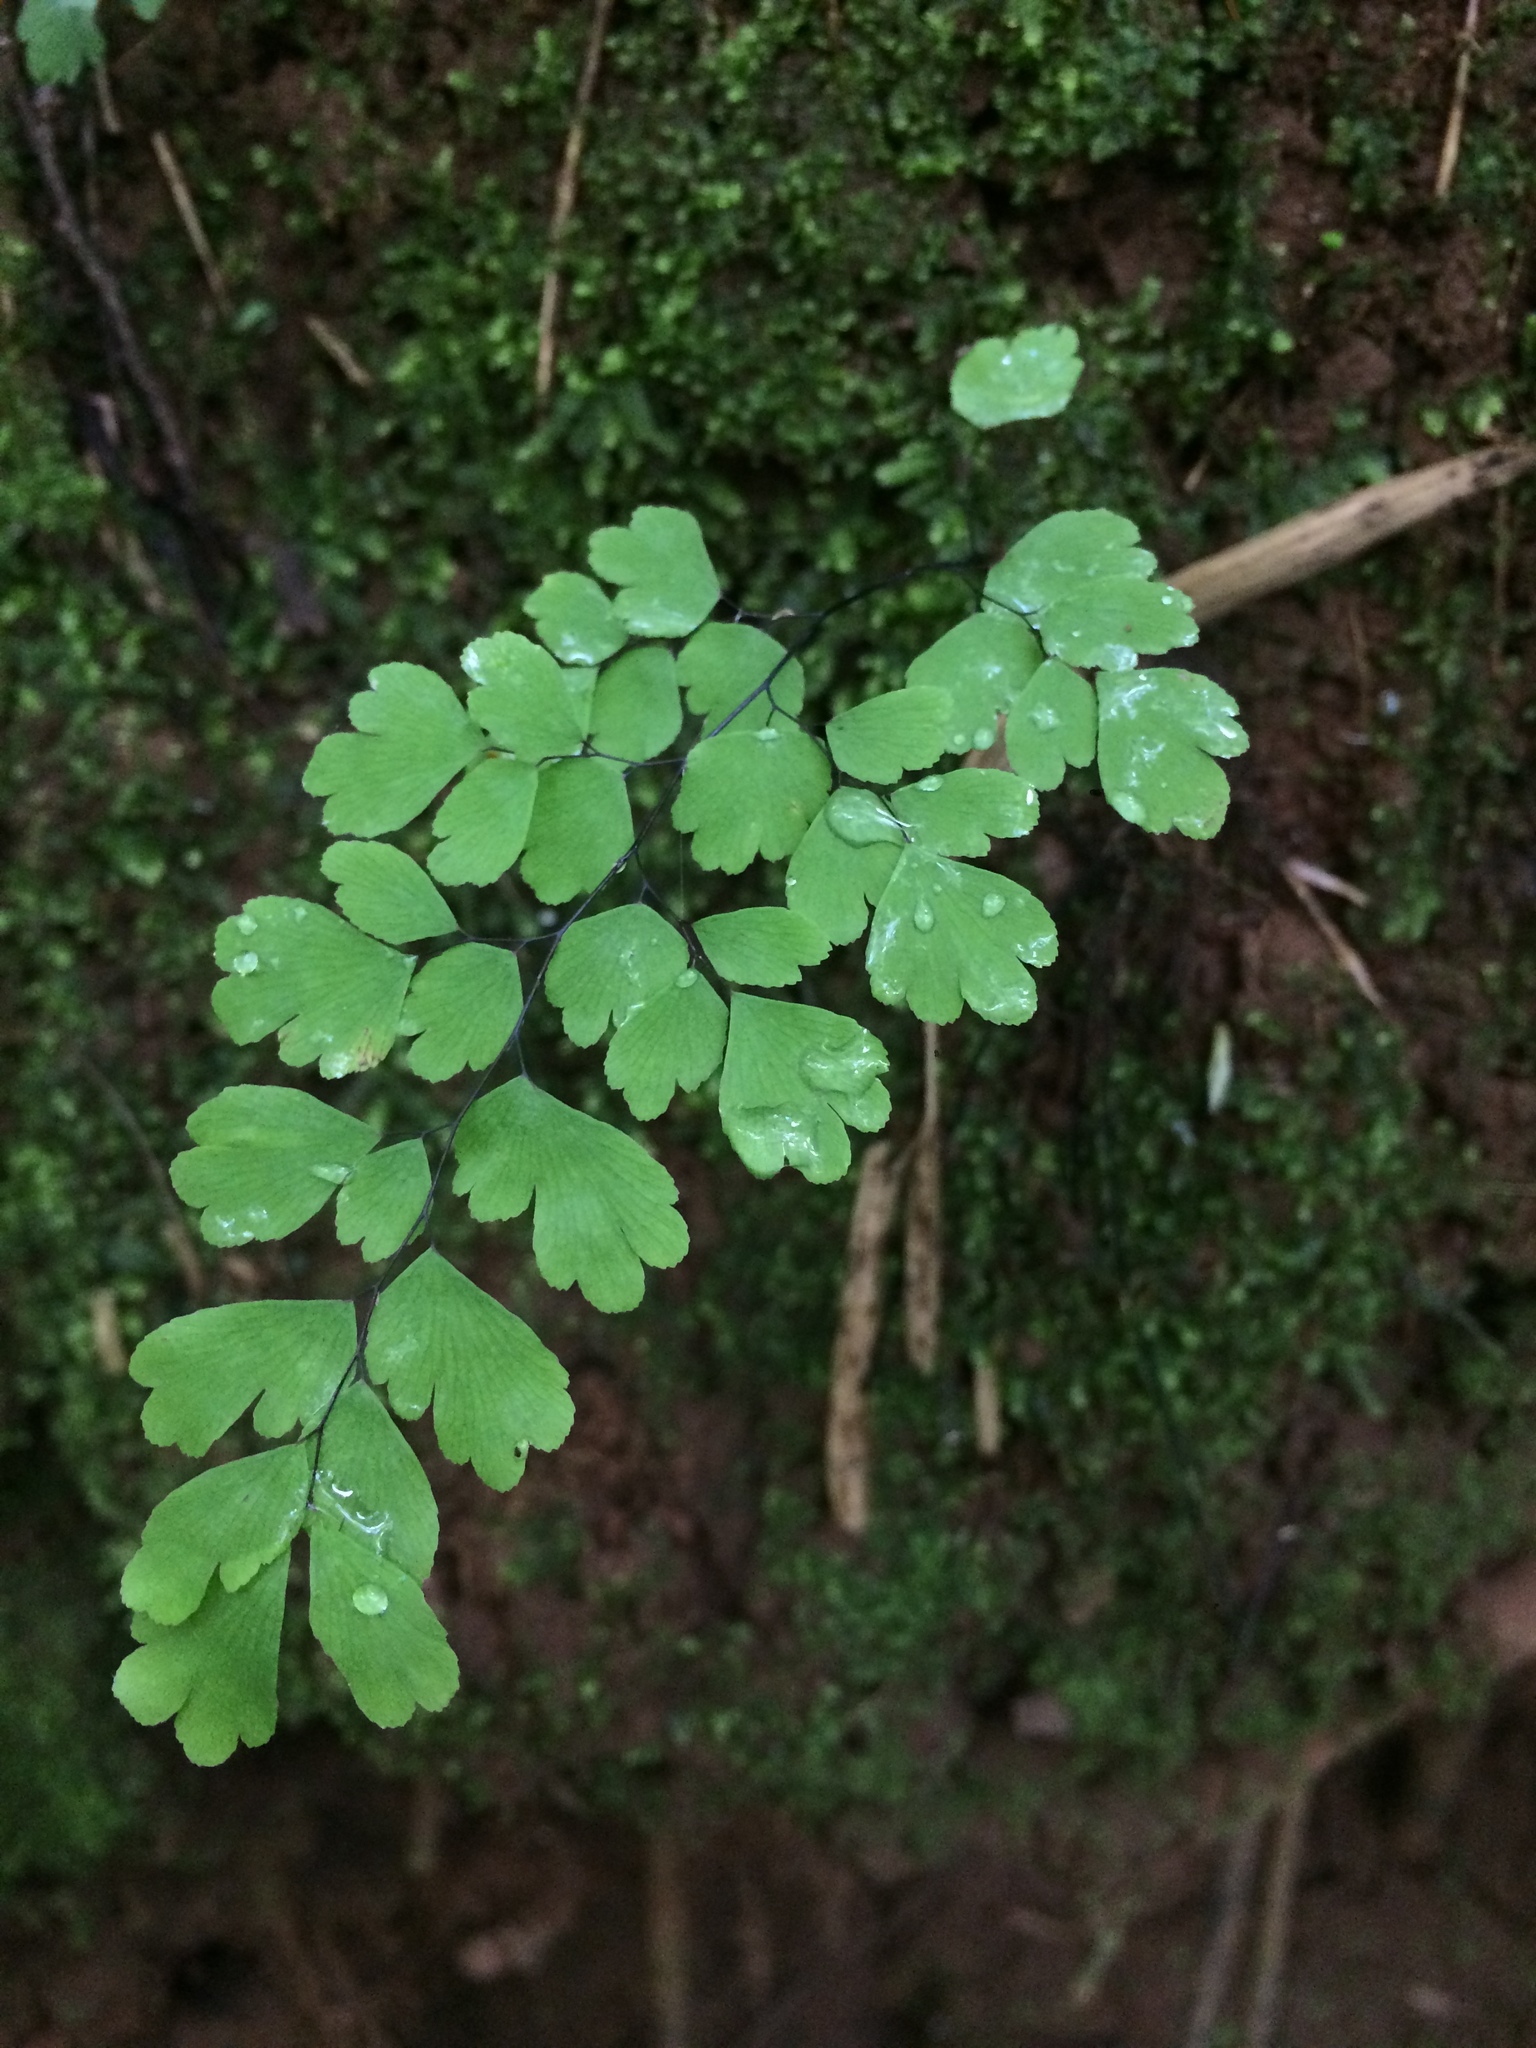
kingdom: Plantae
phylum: Tracheophyta
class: Polypodiopsida
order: Polypodiales
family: Pteridaceae
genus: Adiantum
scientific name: Adiantum capillus-veneris
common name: Maidenhair fern
